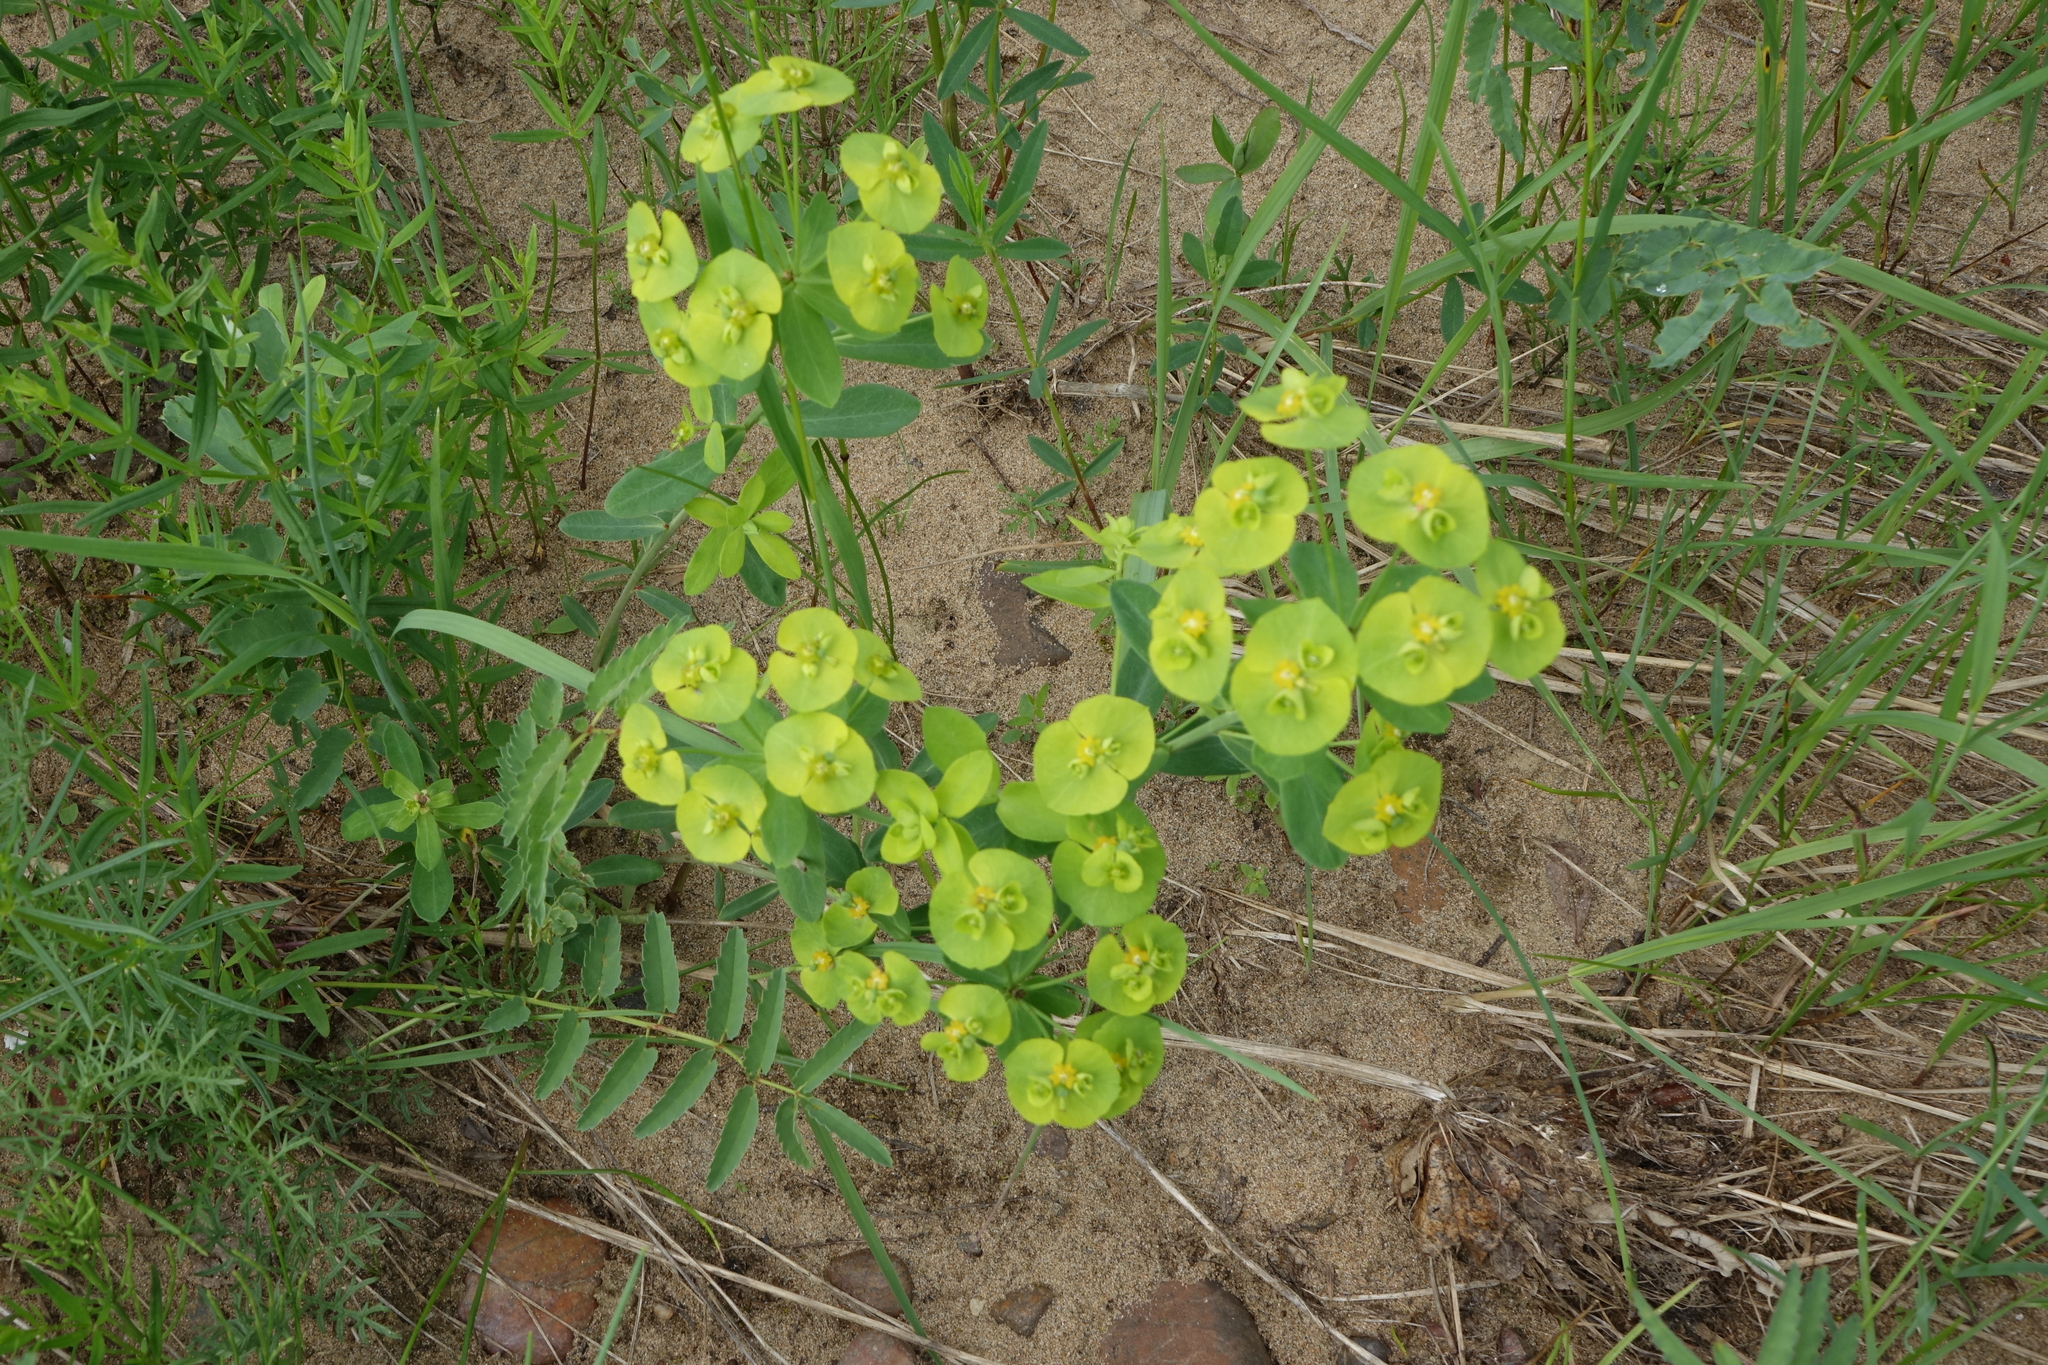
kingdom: Plantae
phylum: Tracheophyta
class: Magnoliopsida
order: Malpighiales
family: Euphorbiaceae
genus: Euphorbia
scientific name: Euphorbia borealis
